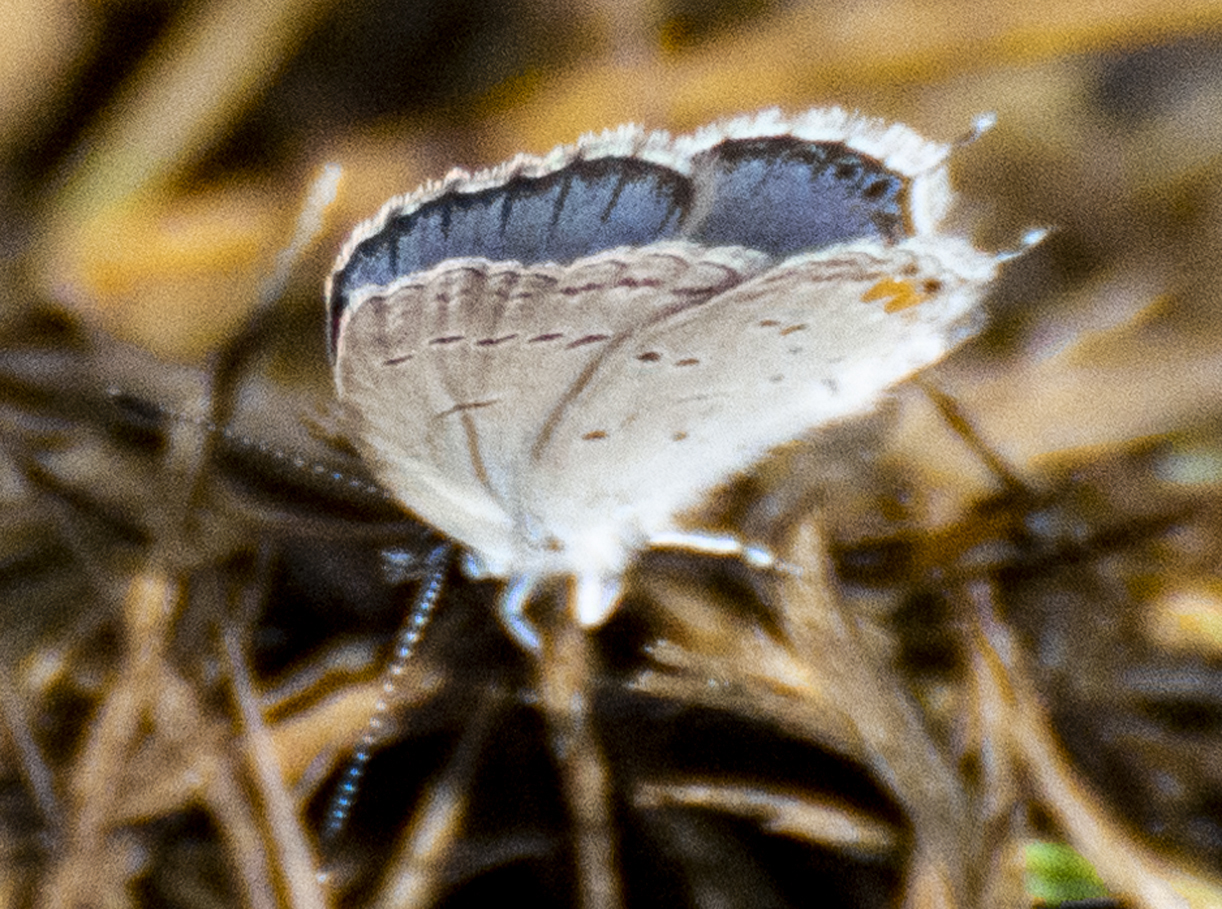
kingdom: Animalia
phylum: Arthropoda
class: Insecta
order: Lepidoptera
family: Lycaenidae
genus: Elkalyce
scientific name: Elkalyce comyntas
